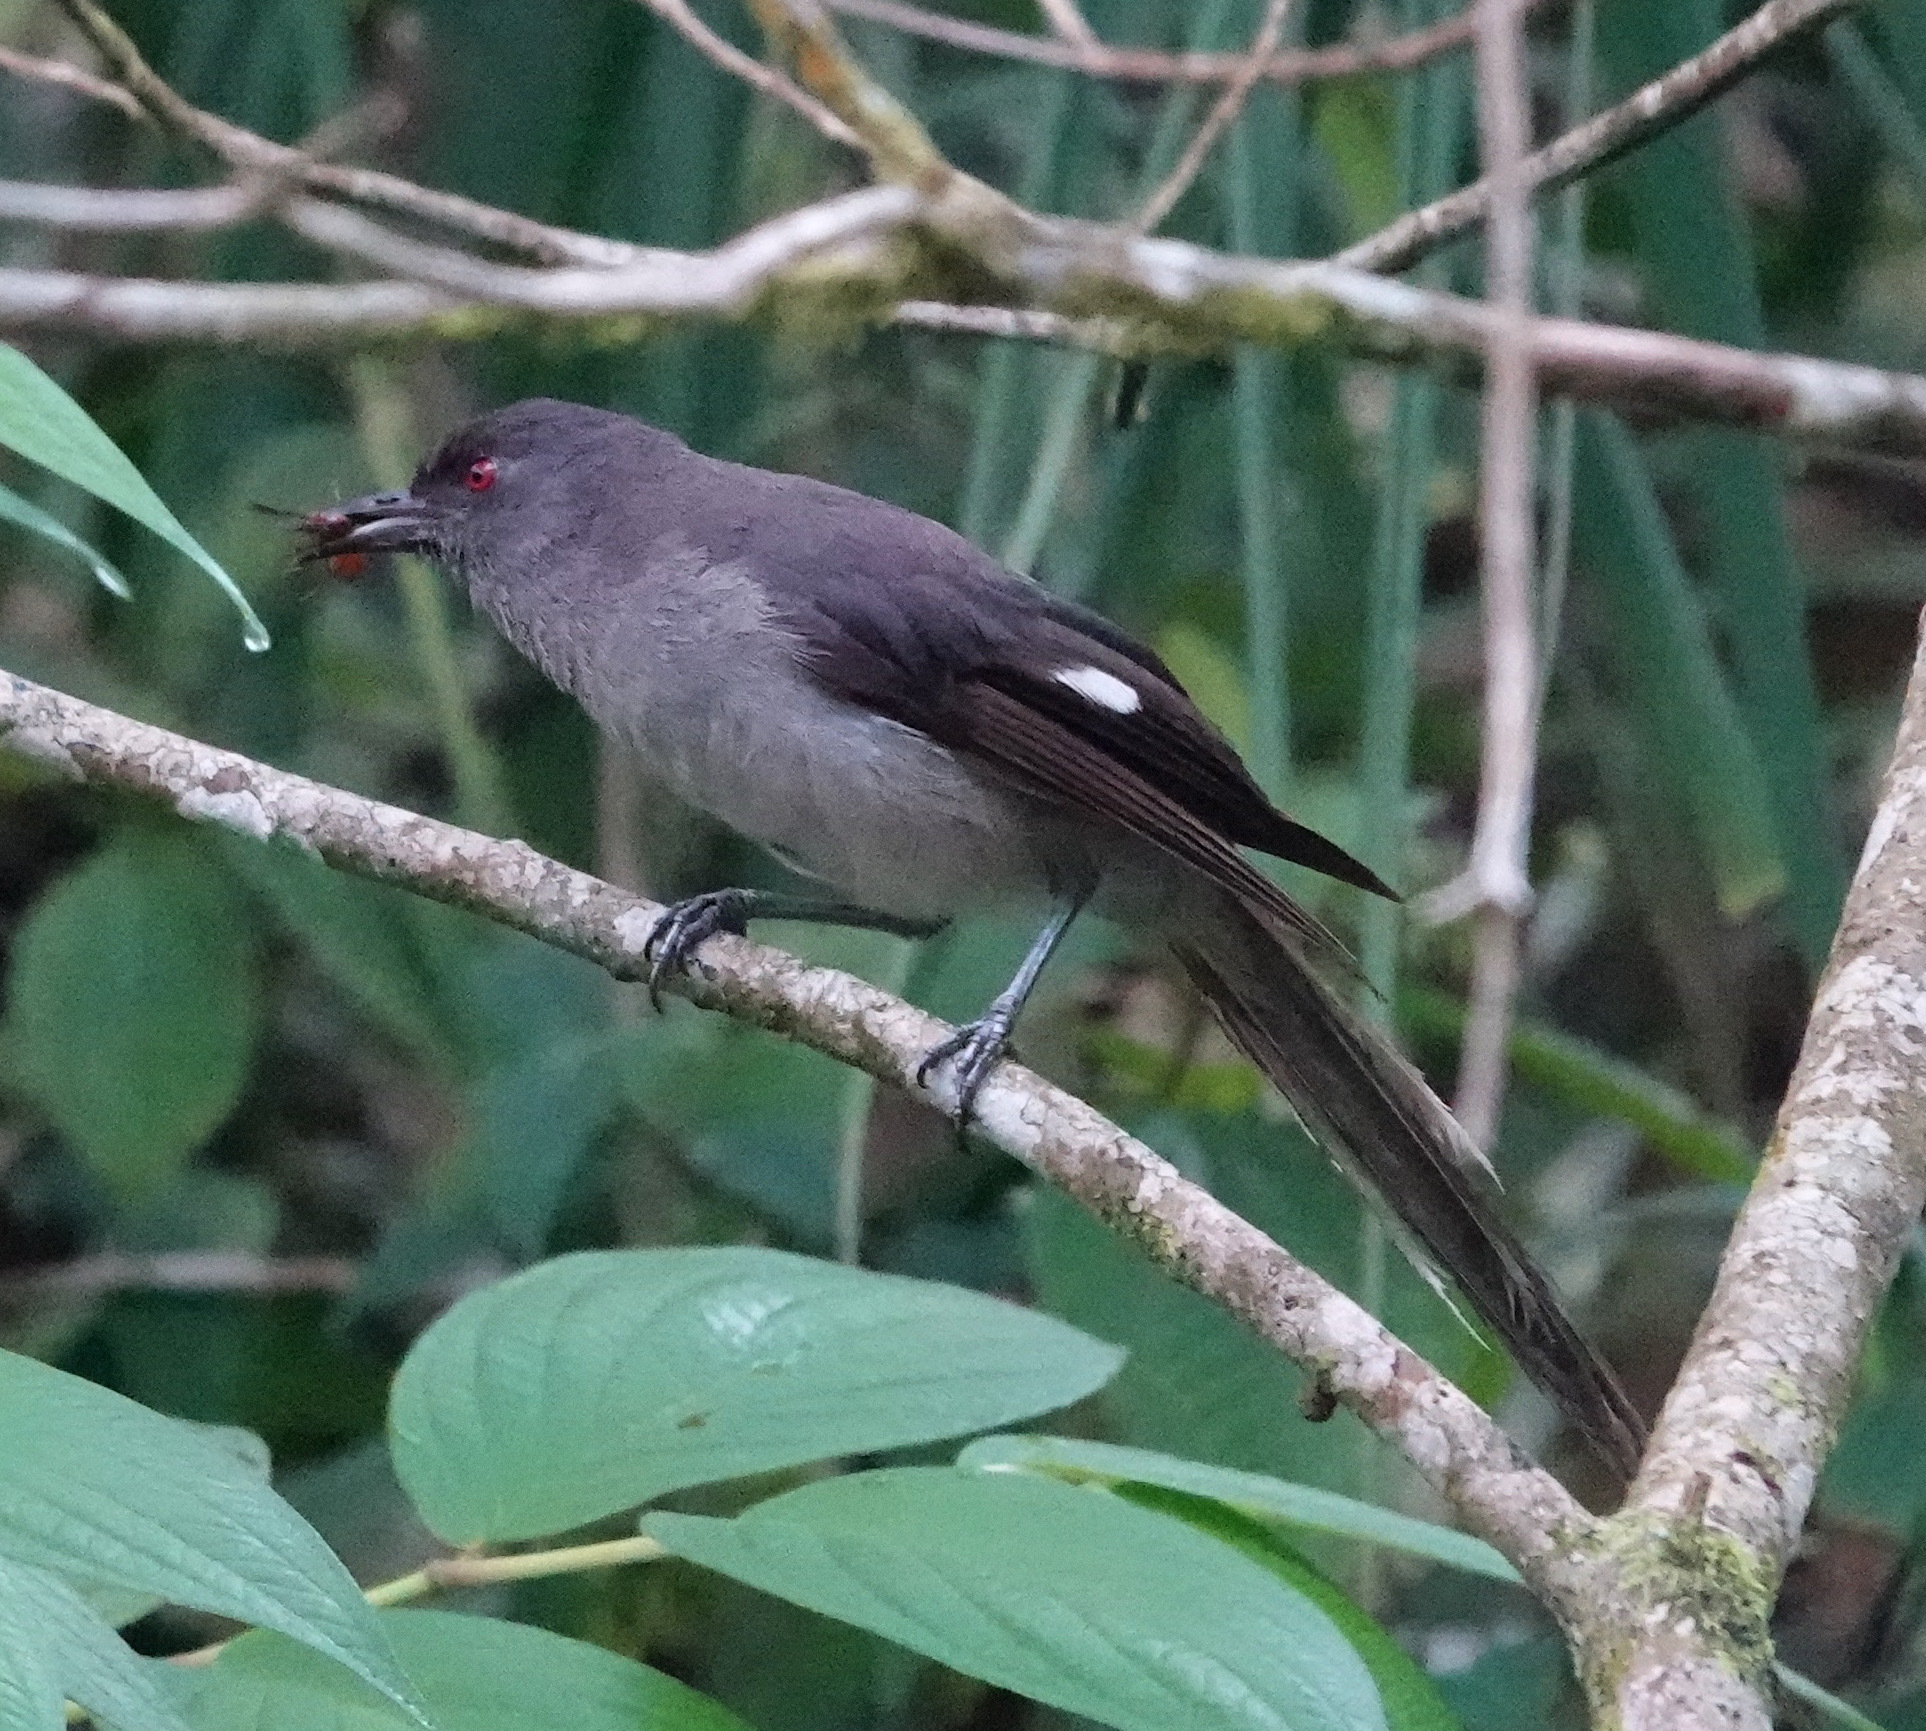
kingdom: Animalia
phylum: Chordata
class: Aves
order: Passeriformes
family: Leiothrichidae
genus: Heterophasia
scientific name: Heterophasia picaoides
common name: Long-tailed sibia
